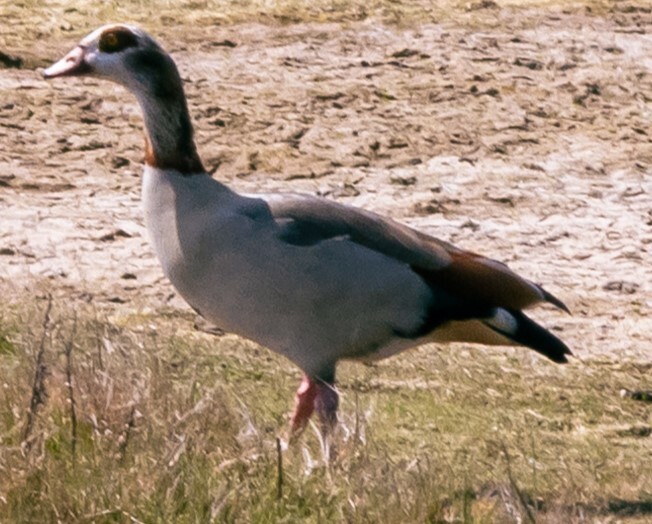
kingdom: Animalia
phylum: Chordata
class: Aves
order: Anseriformes
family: Anatidae
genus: Alopochen
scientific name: Alopochen aegyptiaca
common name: Egyptian goose
